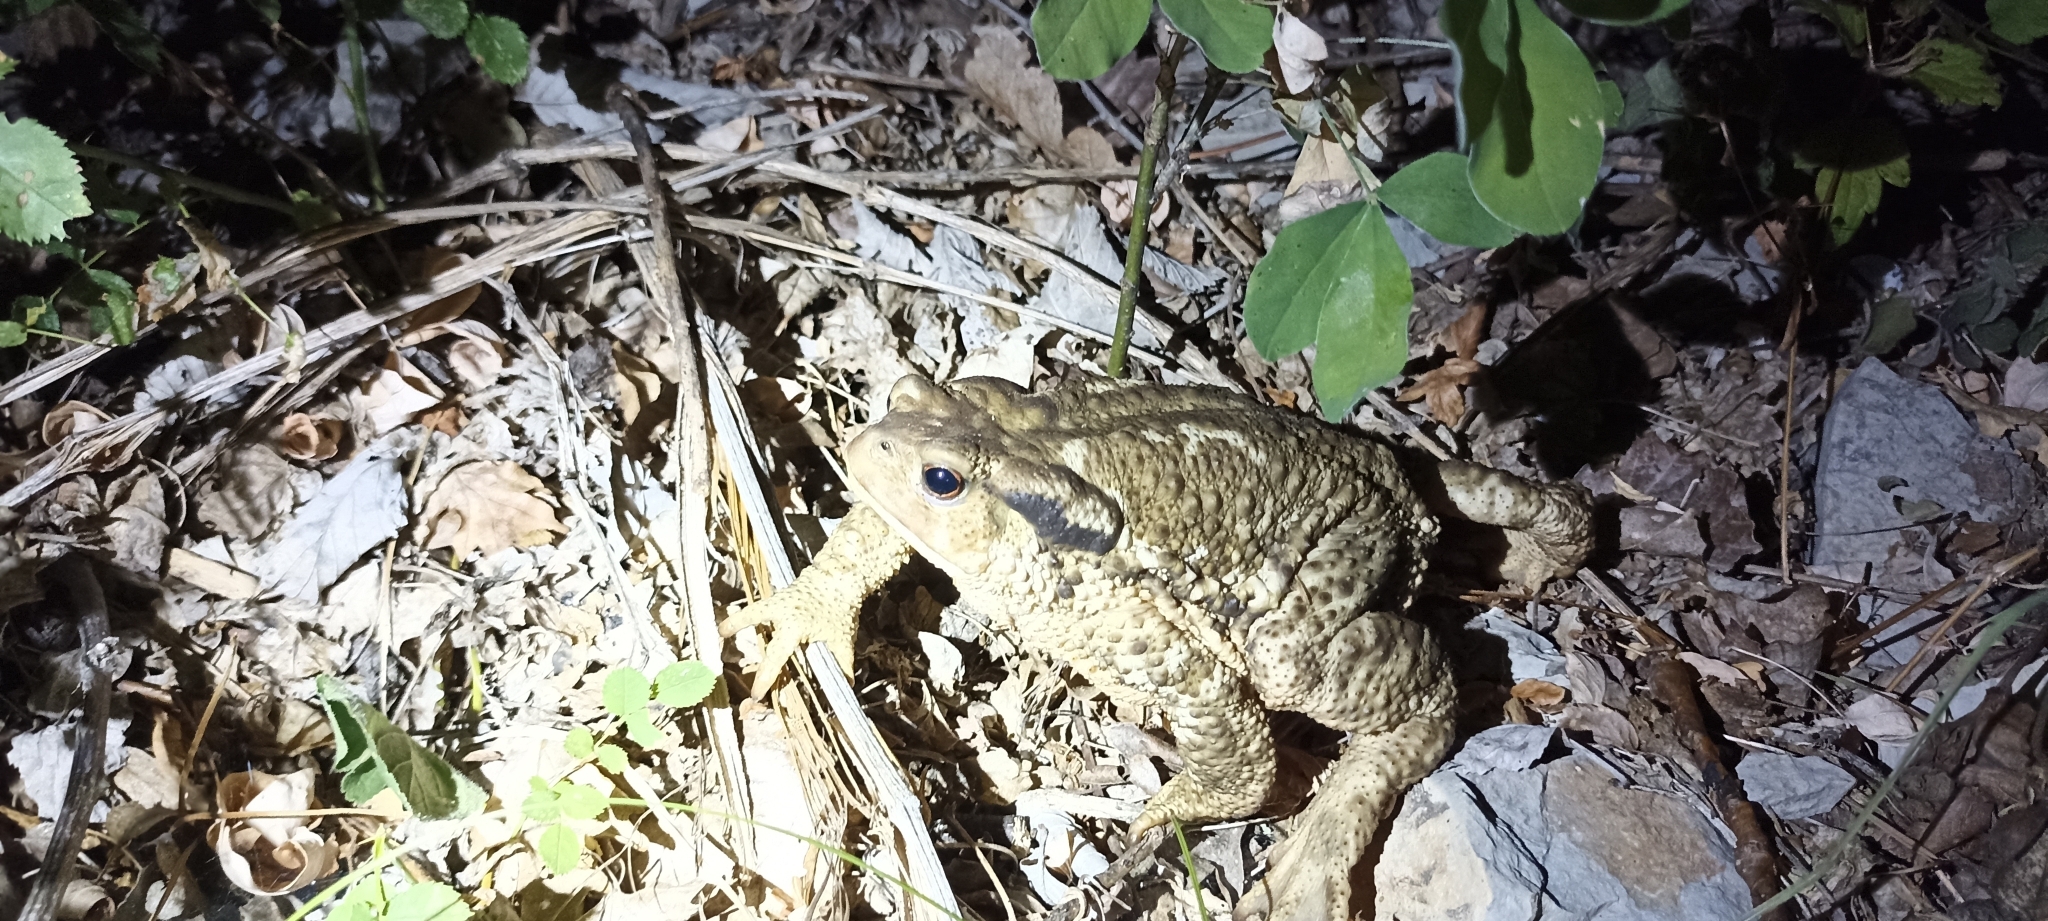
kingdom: Animalia
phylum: Chordata
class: Amphibia
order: Anura
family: Bufonidae
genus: Bufo
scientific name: Bufo spinosus
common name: Western common toad
